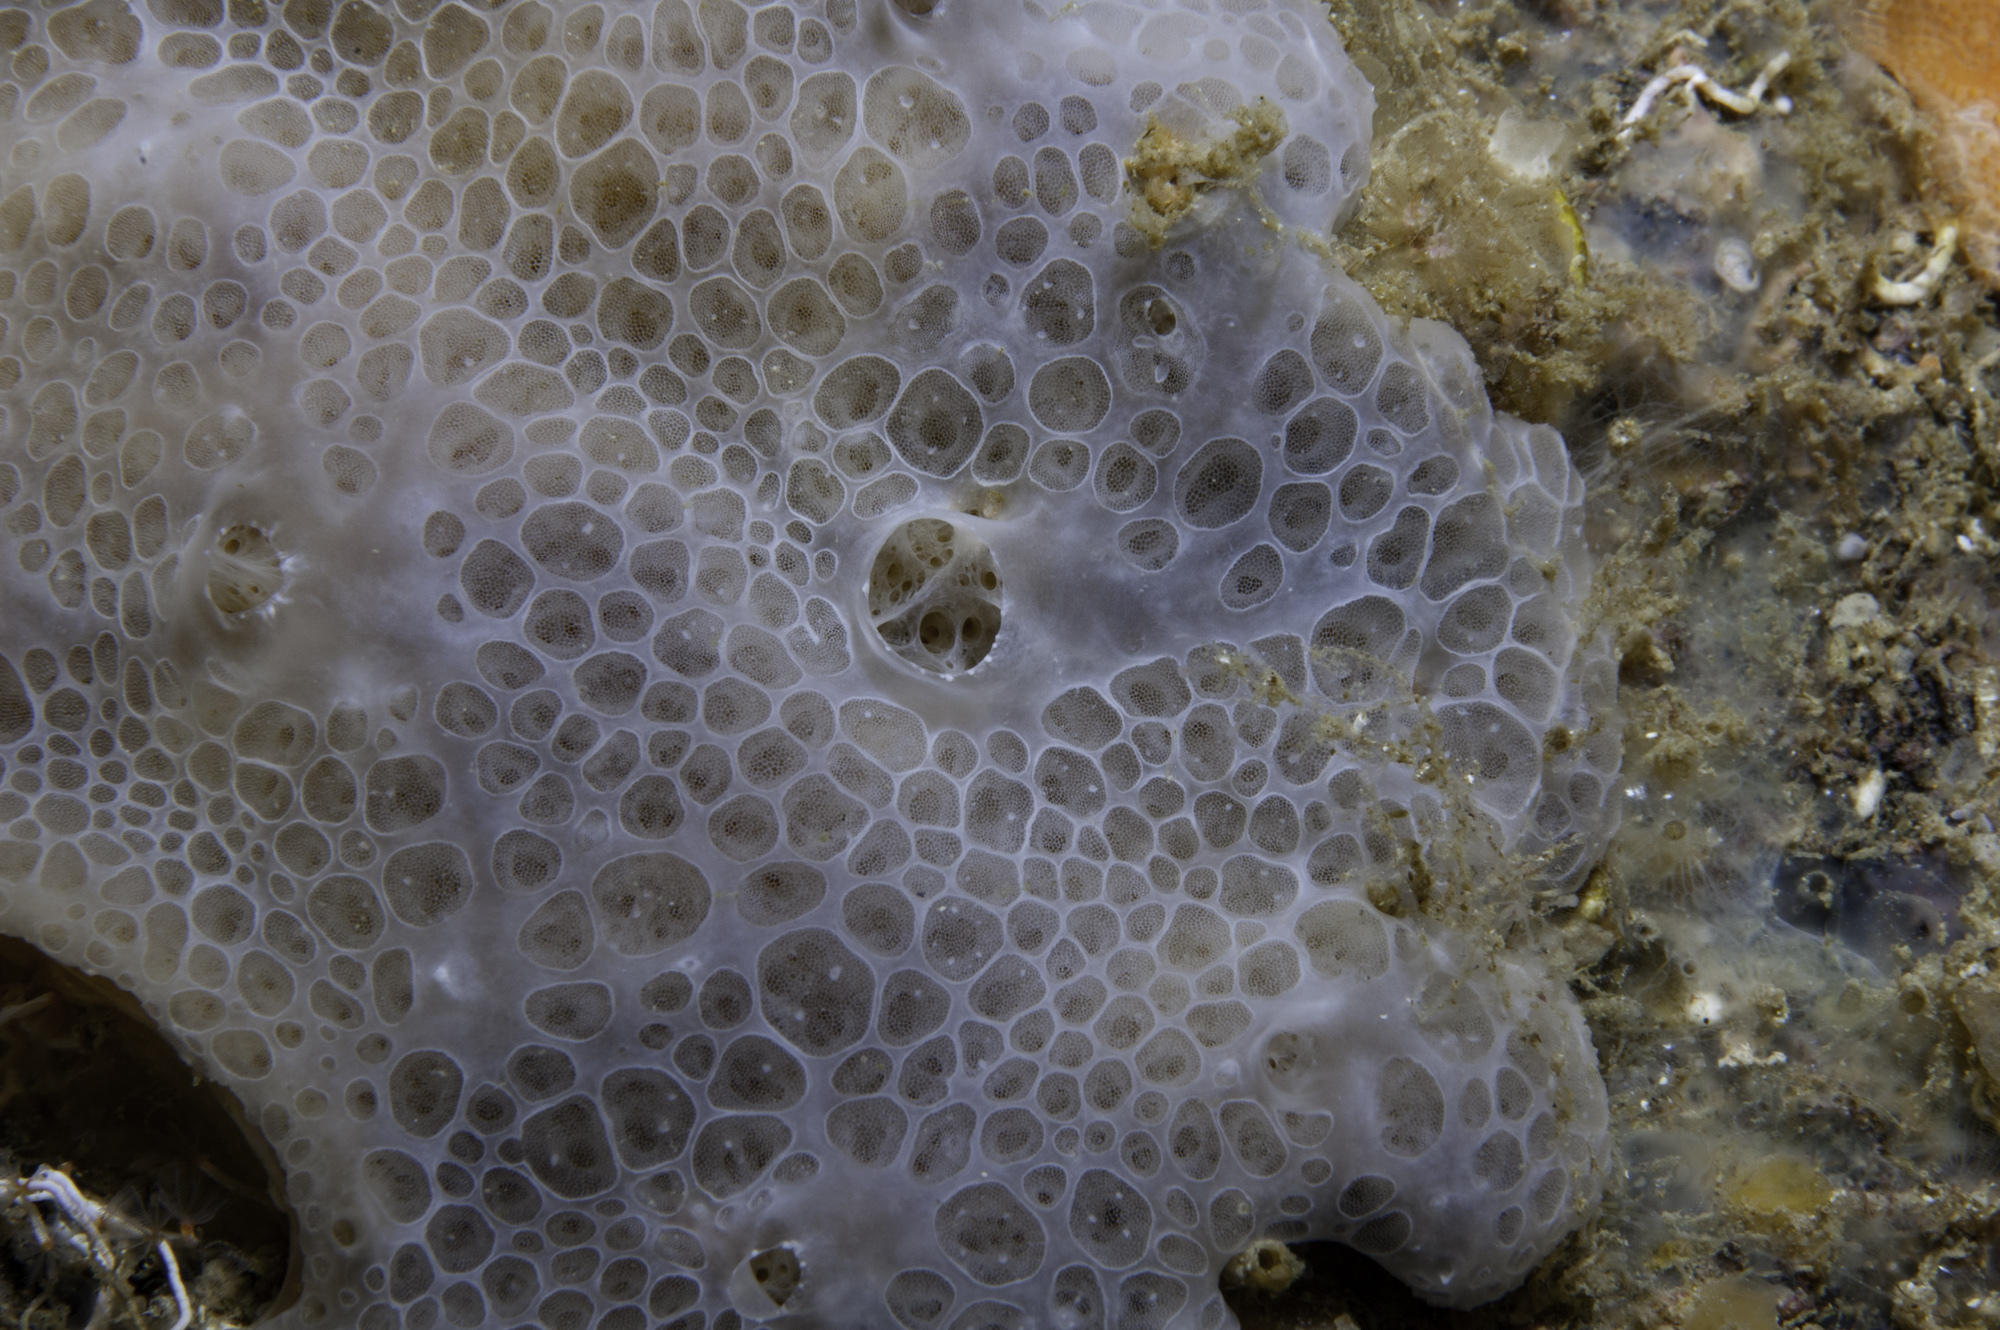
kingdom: Animalia
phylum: Porifera
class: Demospongiae
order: Poecilosclerida
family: Hymedesmiidae
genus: Phorbas
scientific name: Phorbas tenacior
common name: Bluish encrusting sponge
